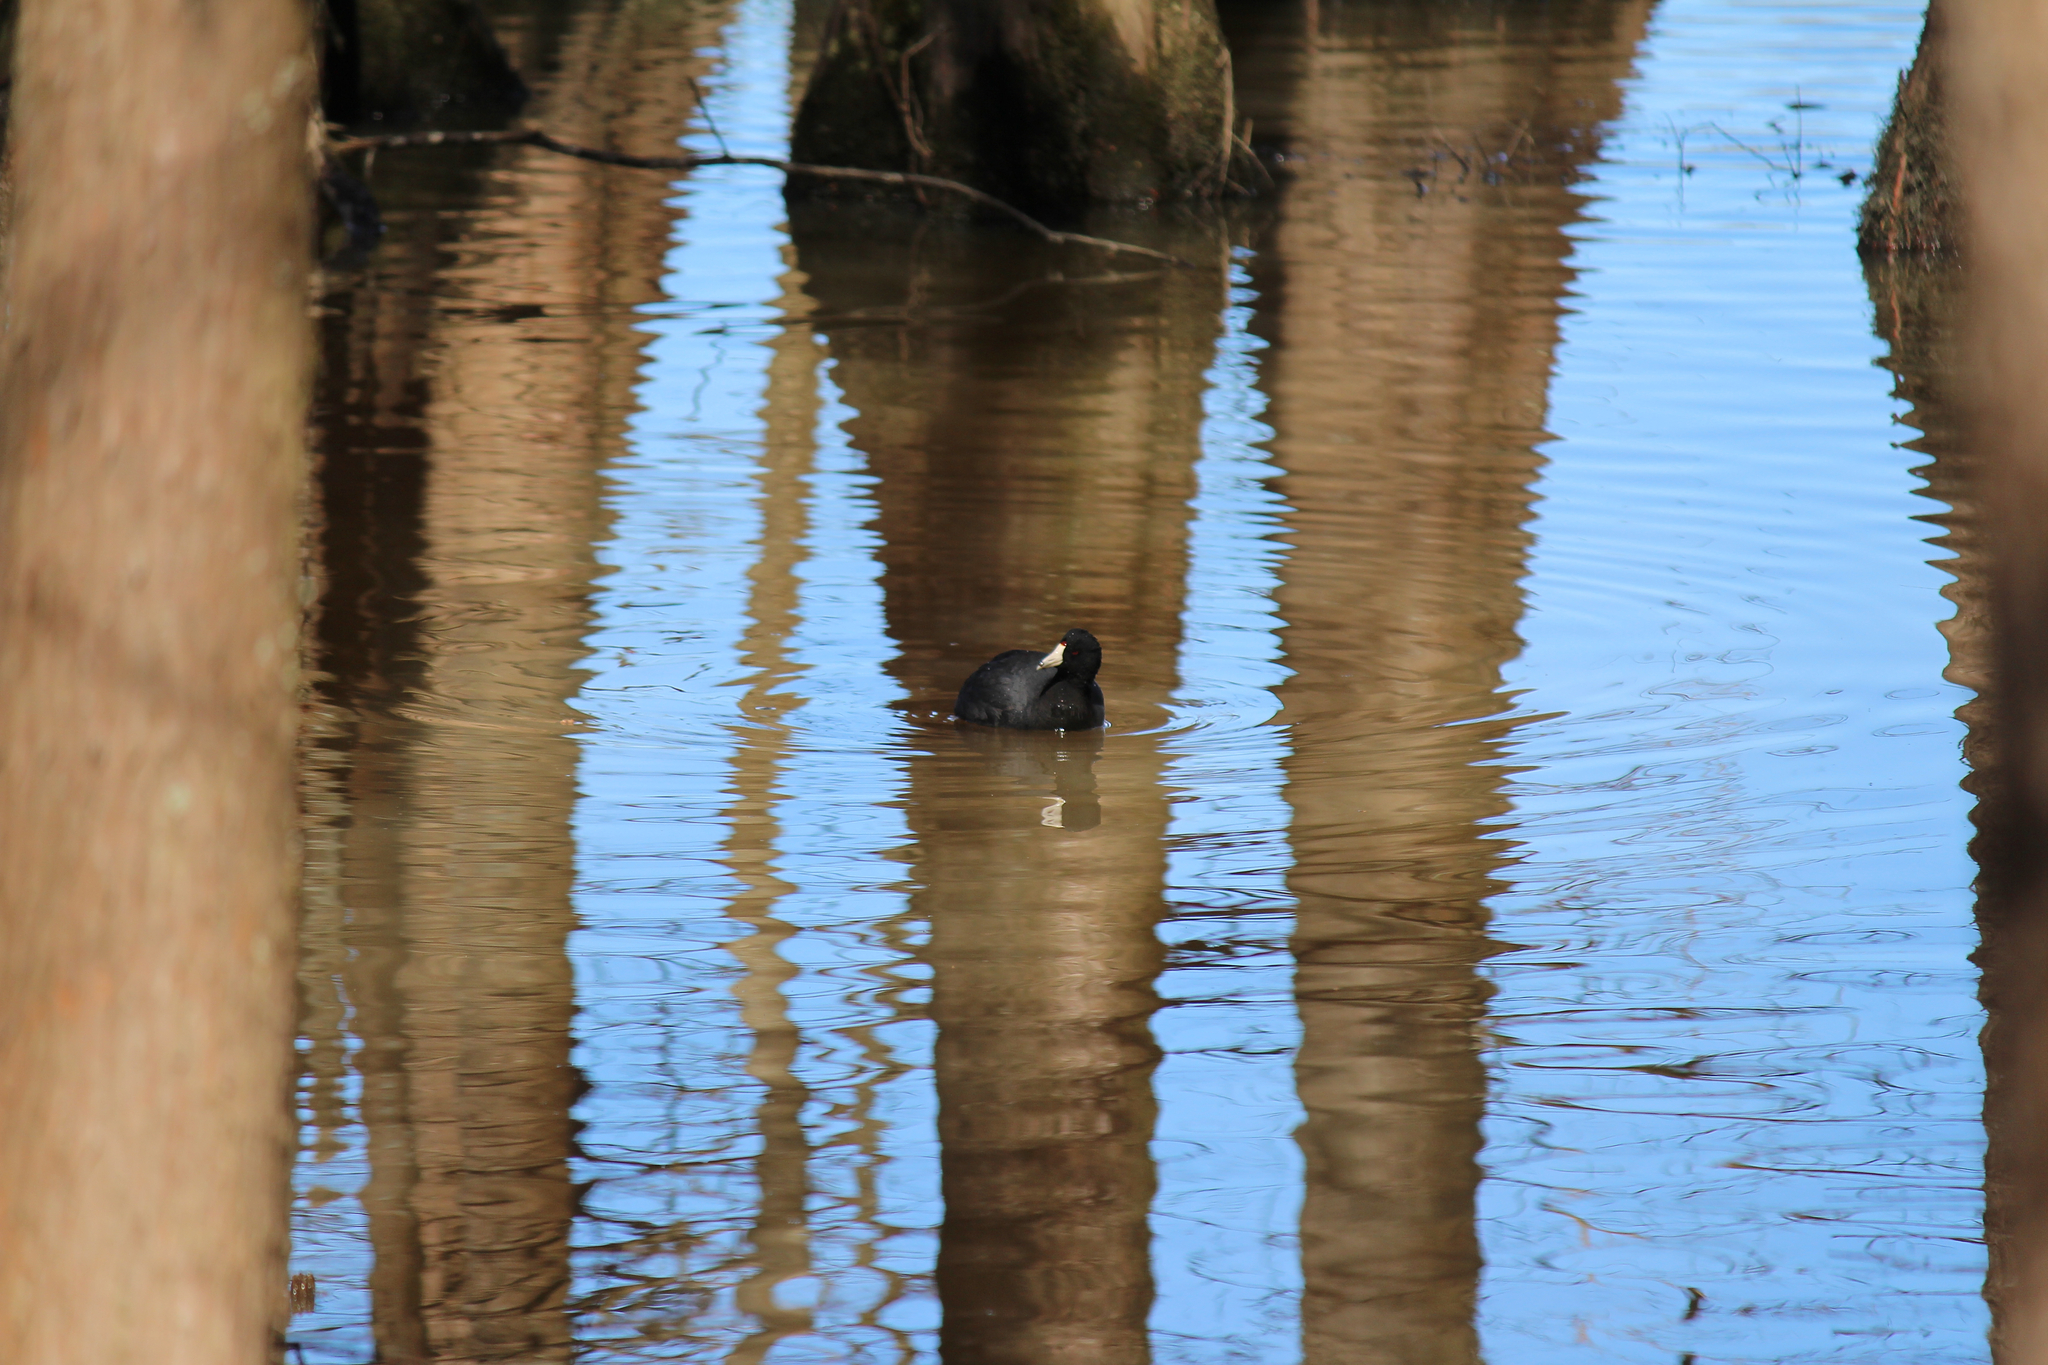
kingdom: Animalia
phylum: Chordata
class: Aves
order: Gruiformes
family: Rallidae
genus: Fulica
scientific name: Fulica americana
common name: American coot
